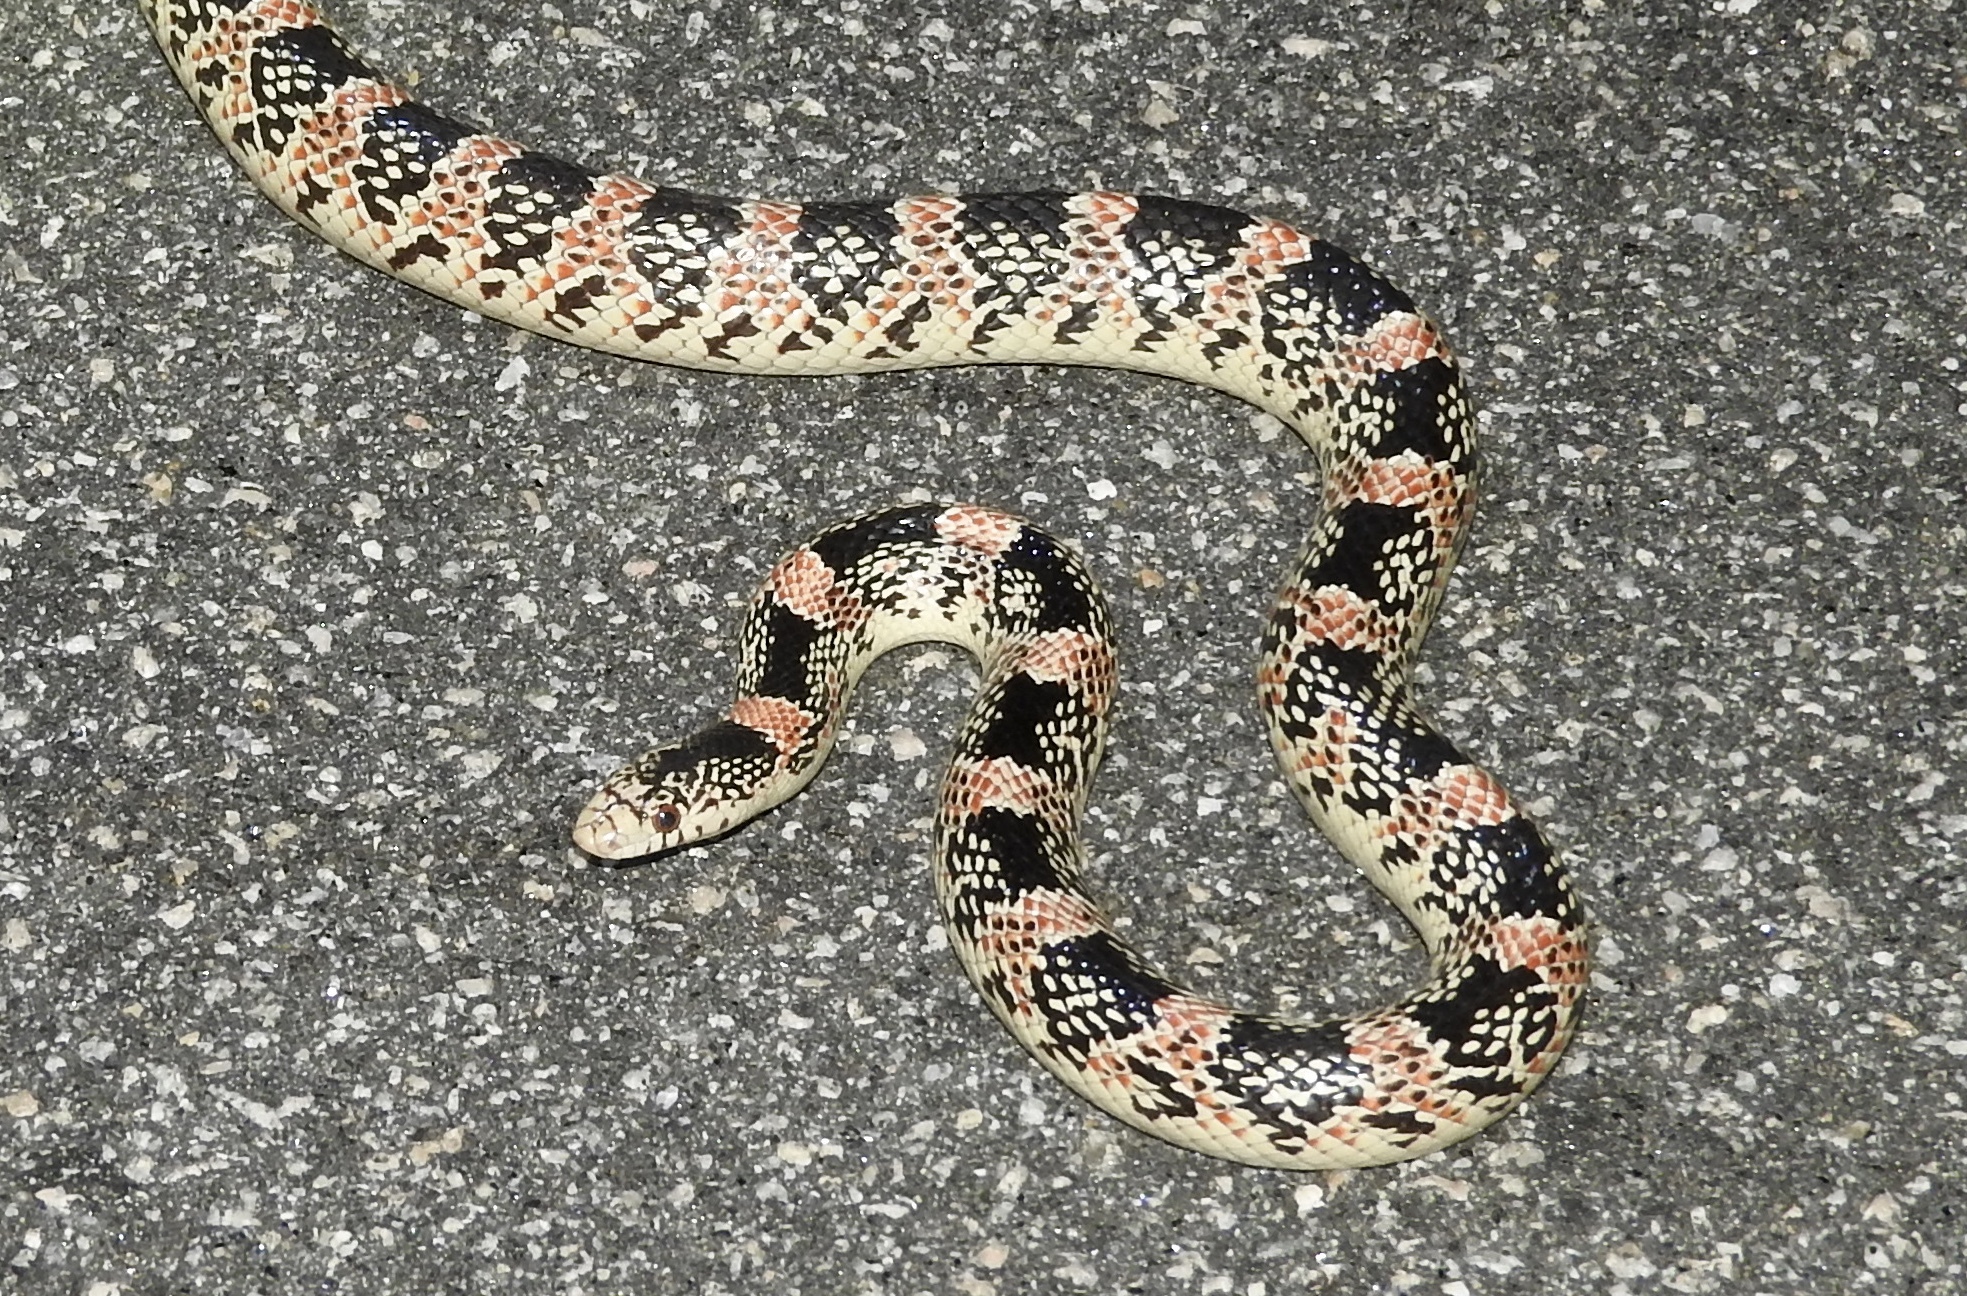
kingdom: Animalia
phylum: Chordata
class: Squamata
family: Colubridae
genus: Rhinocheilus
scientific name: Rhinocheilus lecontei
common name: Longnose snake
